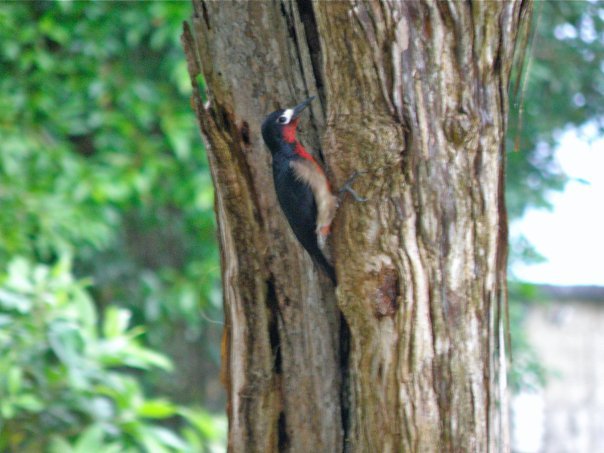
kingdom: Animalia
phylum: Chordata
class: Aves
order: Piciformes
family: Picidae
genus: Melanerpes
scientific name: Melanerpes portoricensis
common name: Puerto rican woodpecker
